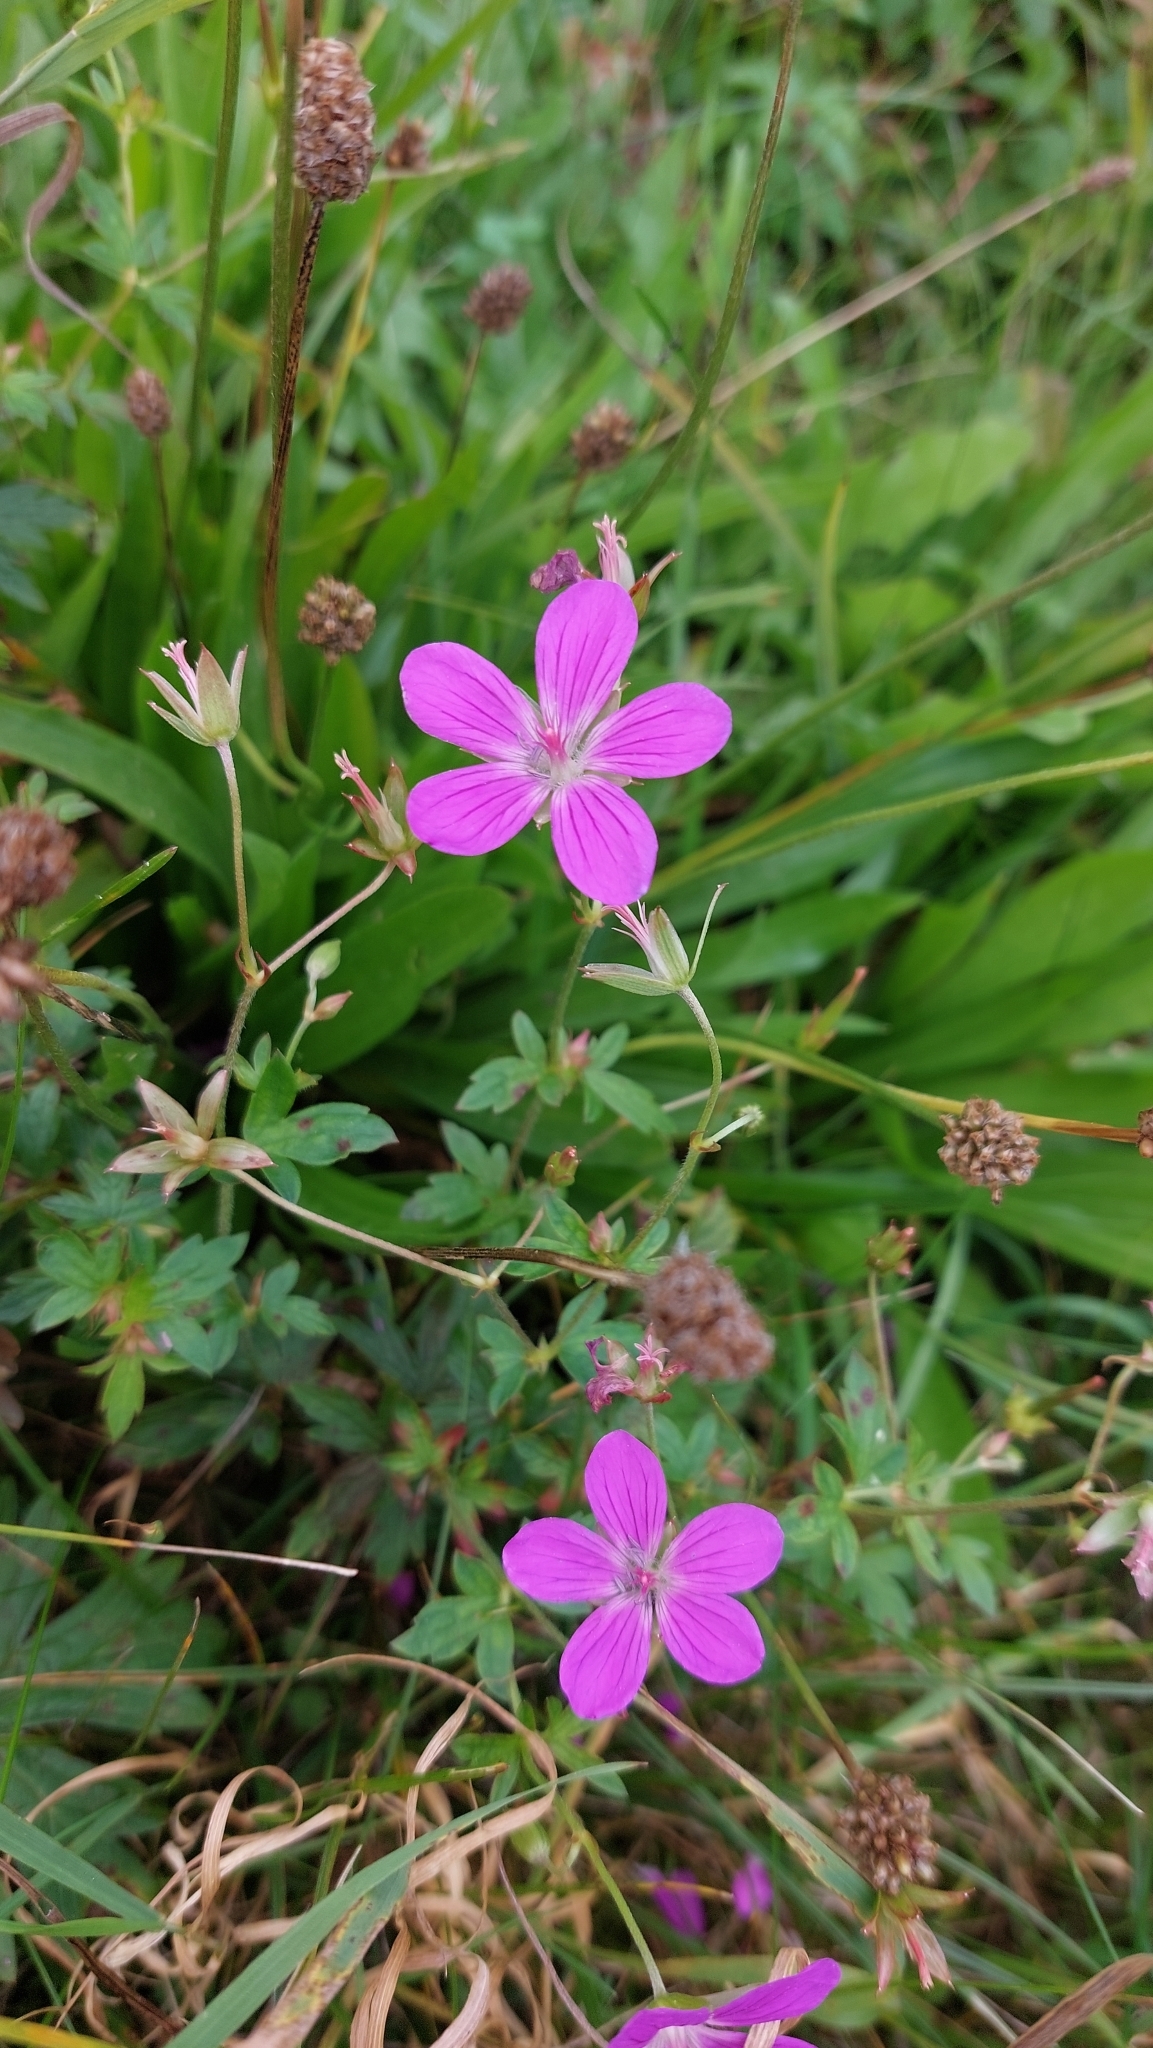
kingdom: Plantae
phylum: Tracheophyta
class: Magnoliopsida
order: Geraniales
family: Geraniaceae
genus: Geranium
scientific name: Geranium palustre
